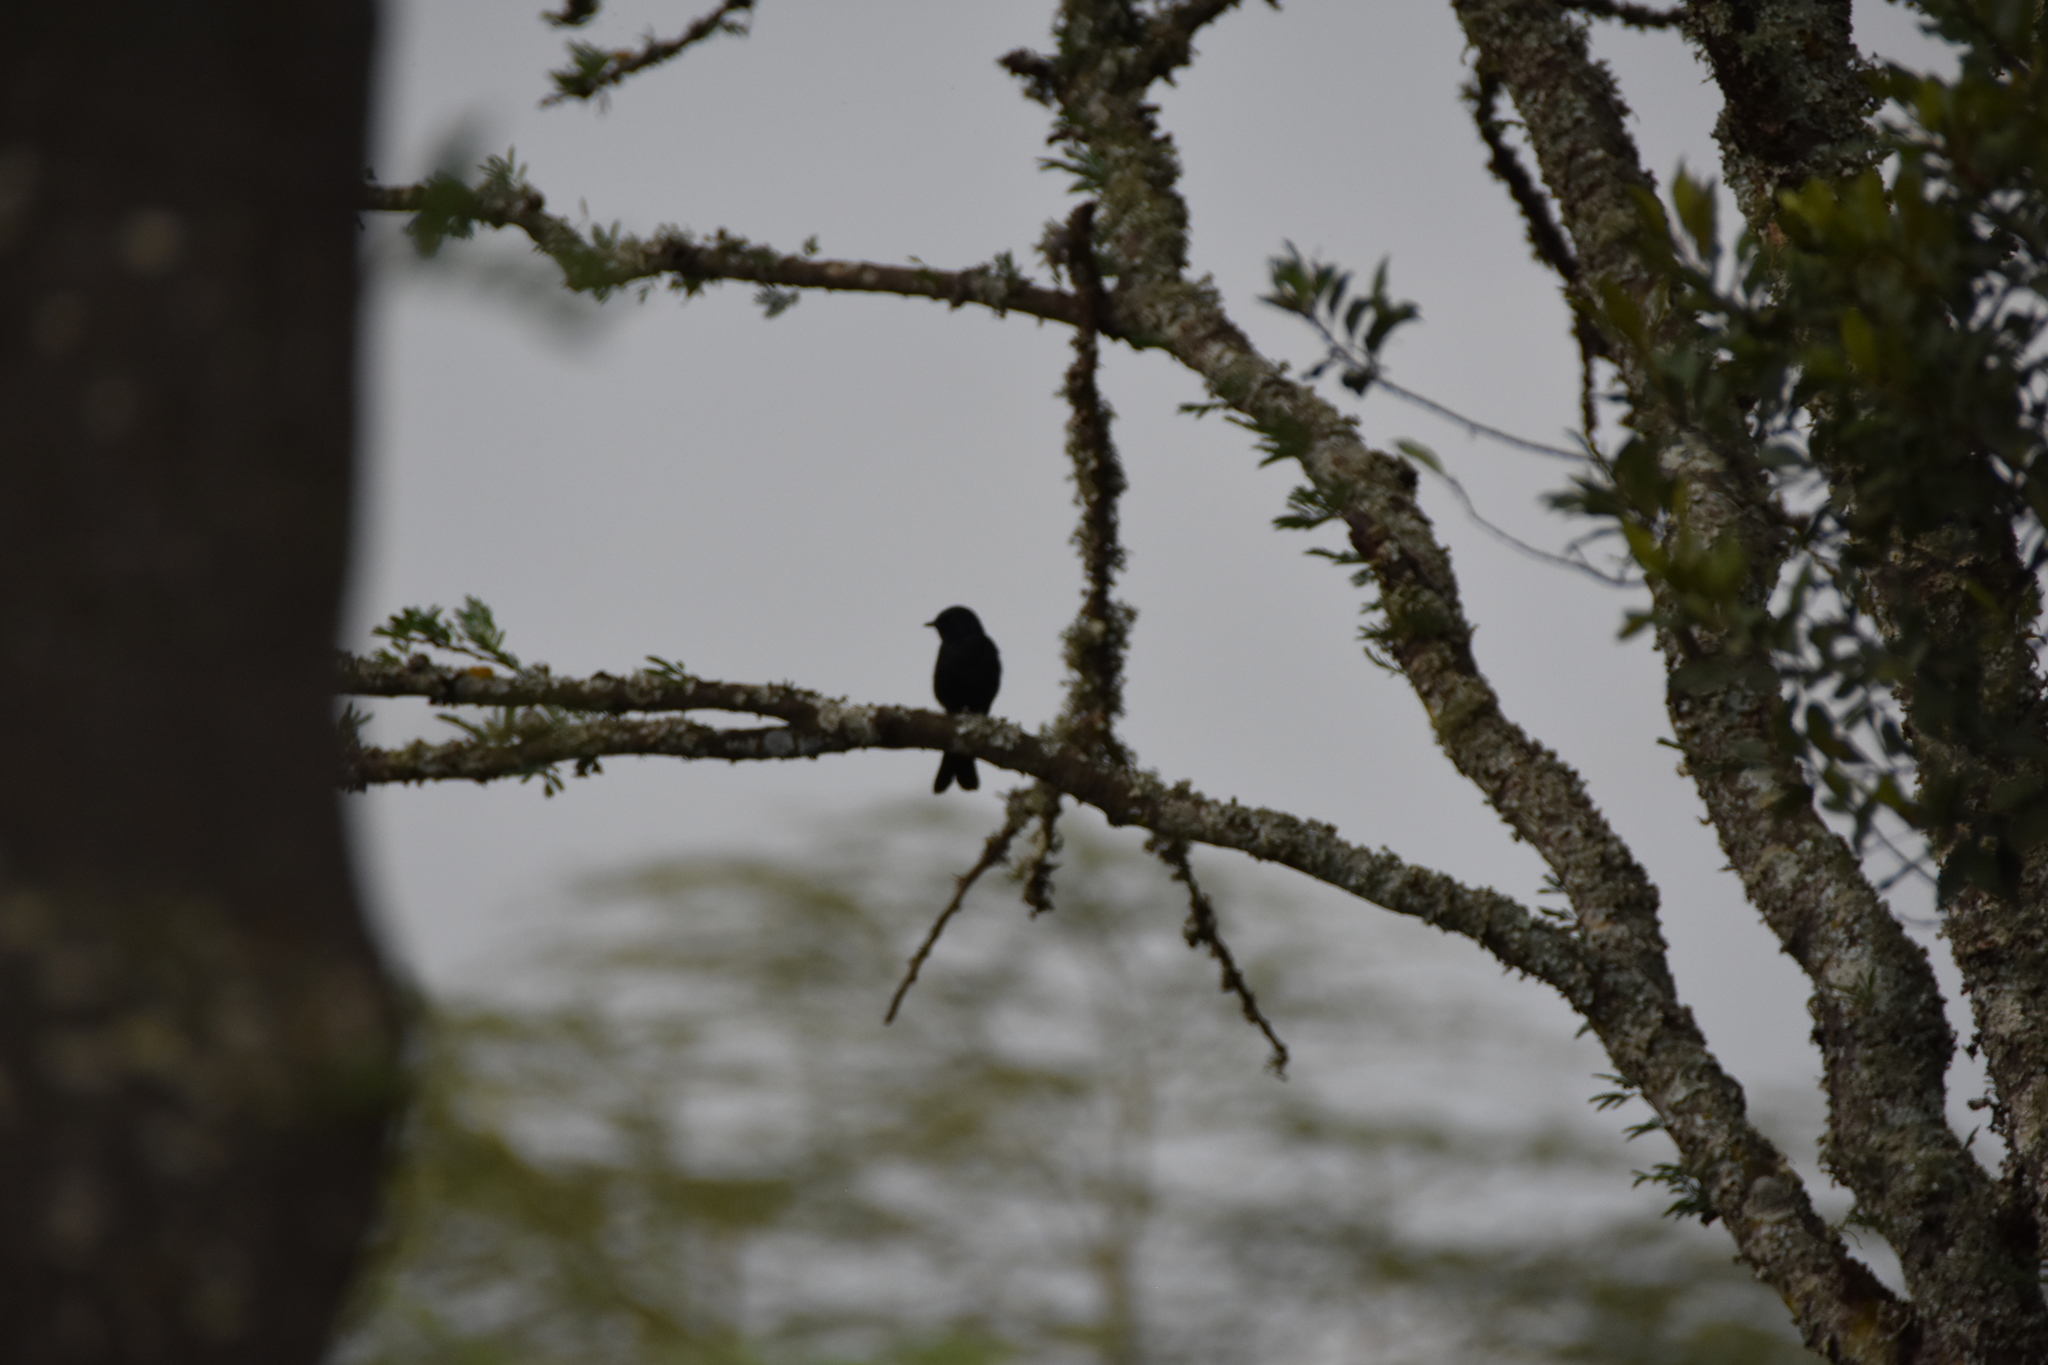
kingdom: Animalia
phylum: Chordata
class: Aves
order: Passeriformes
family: Muscicapidae
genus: Melaenornis
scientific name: Melaenornis pammelaina
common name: Southern black flycatcher
